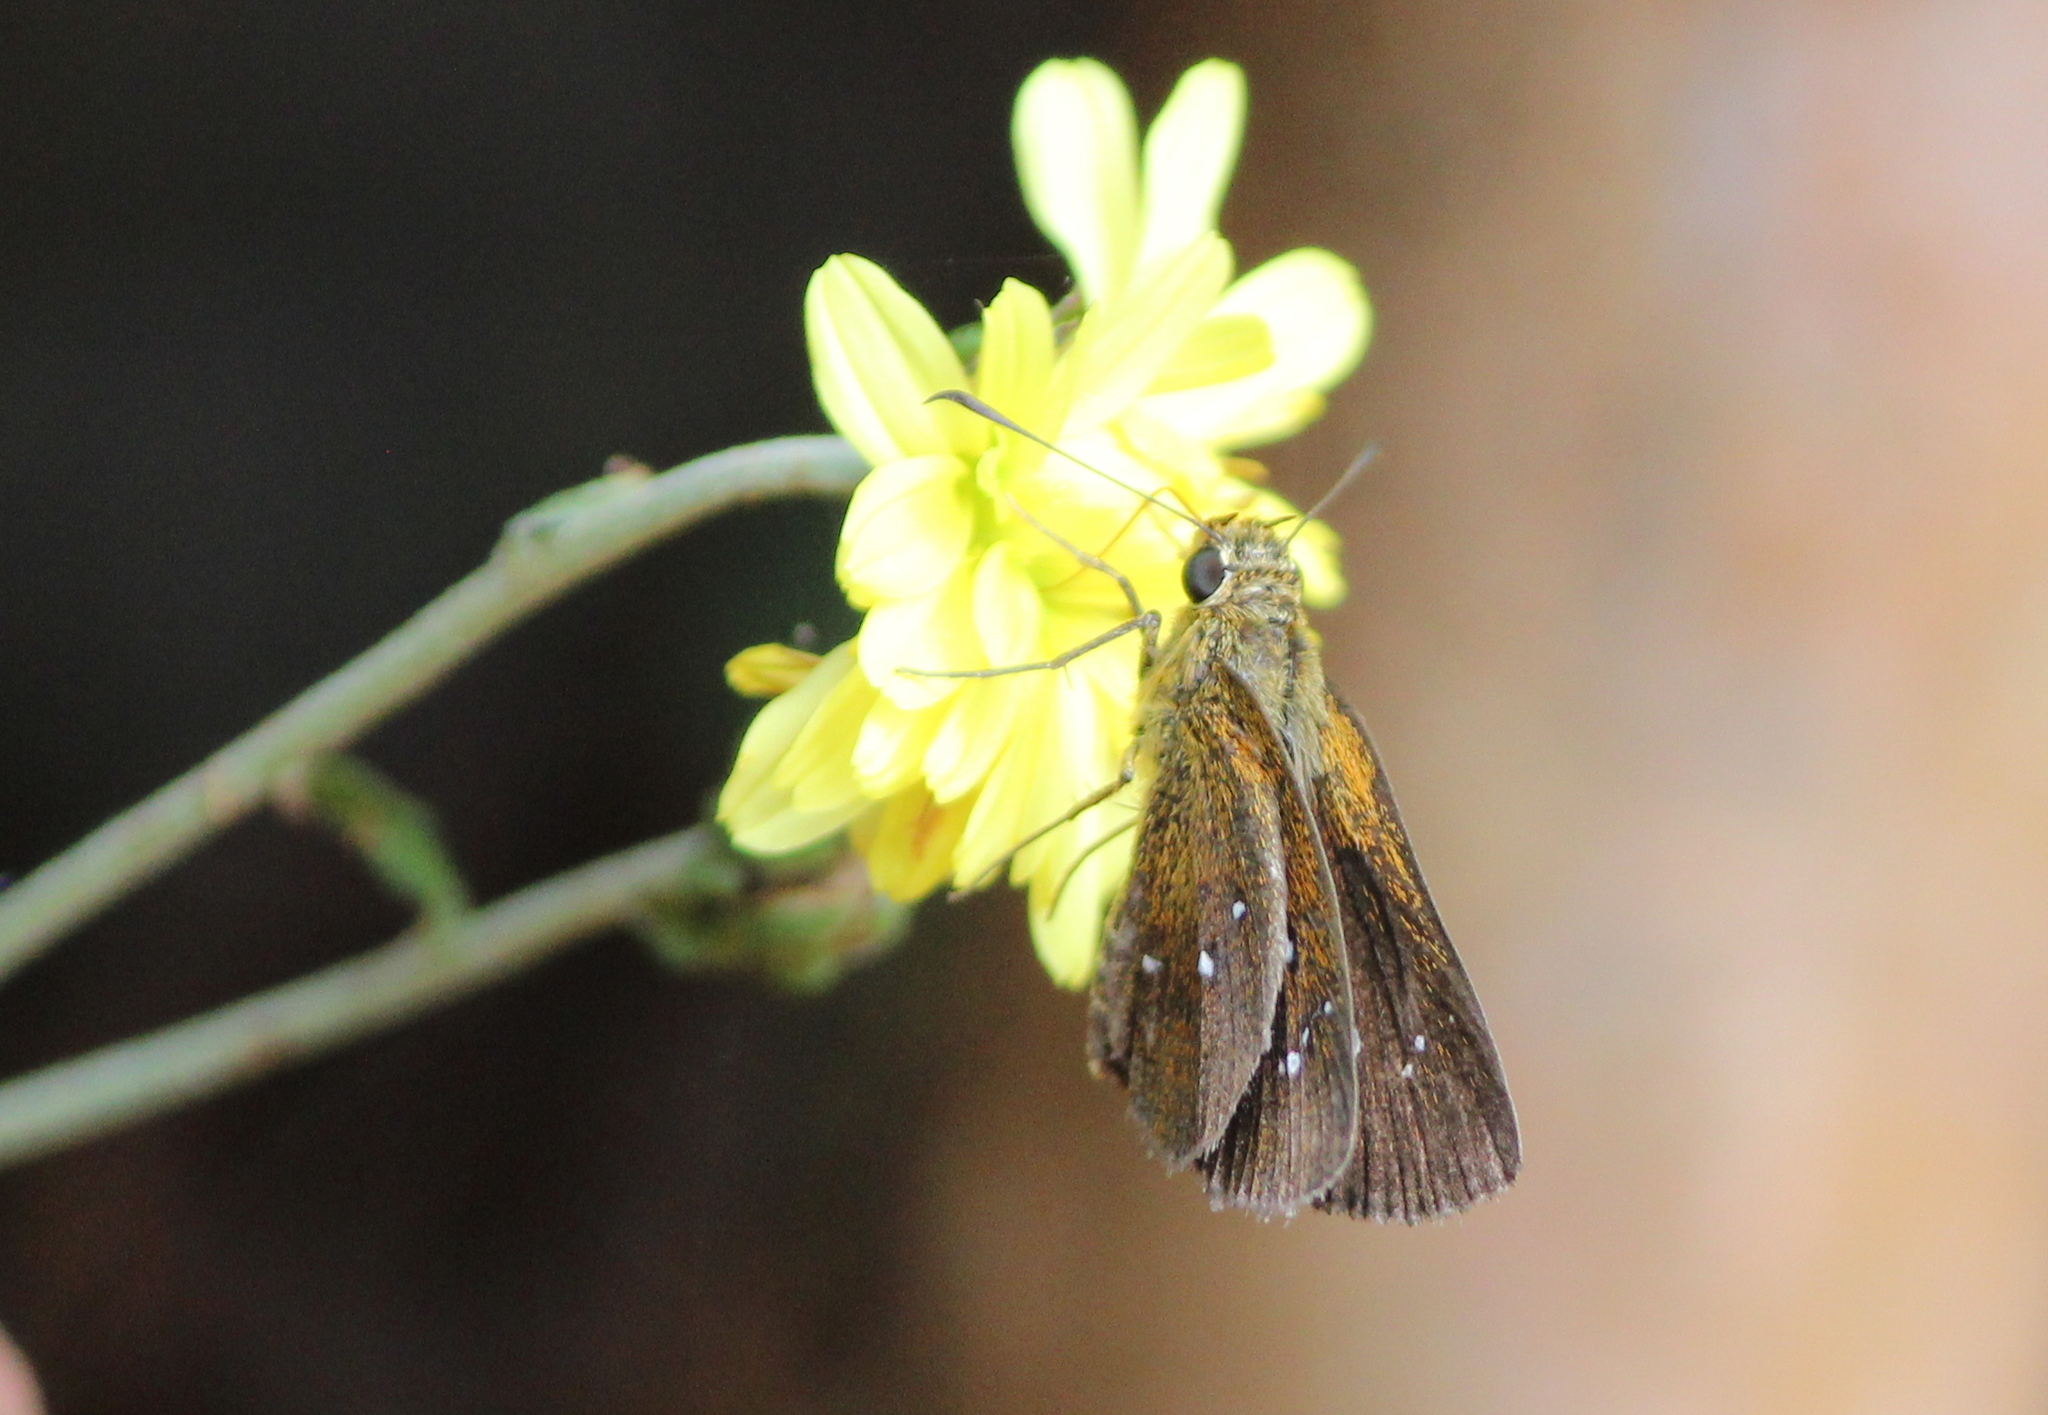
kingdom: Animalia
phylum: Arthropoda
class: Insecta
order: Lepidoptera
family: Hesperiidae
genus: Iambrix
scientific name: Iambrix salsala
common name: Chestnut bob
